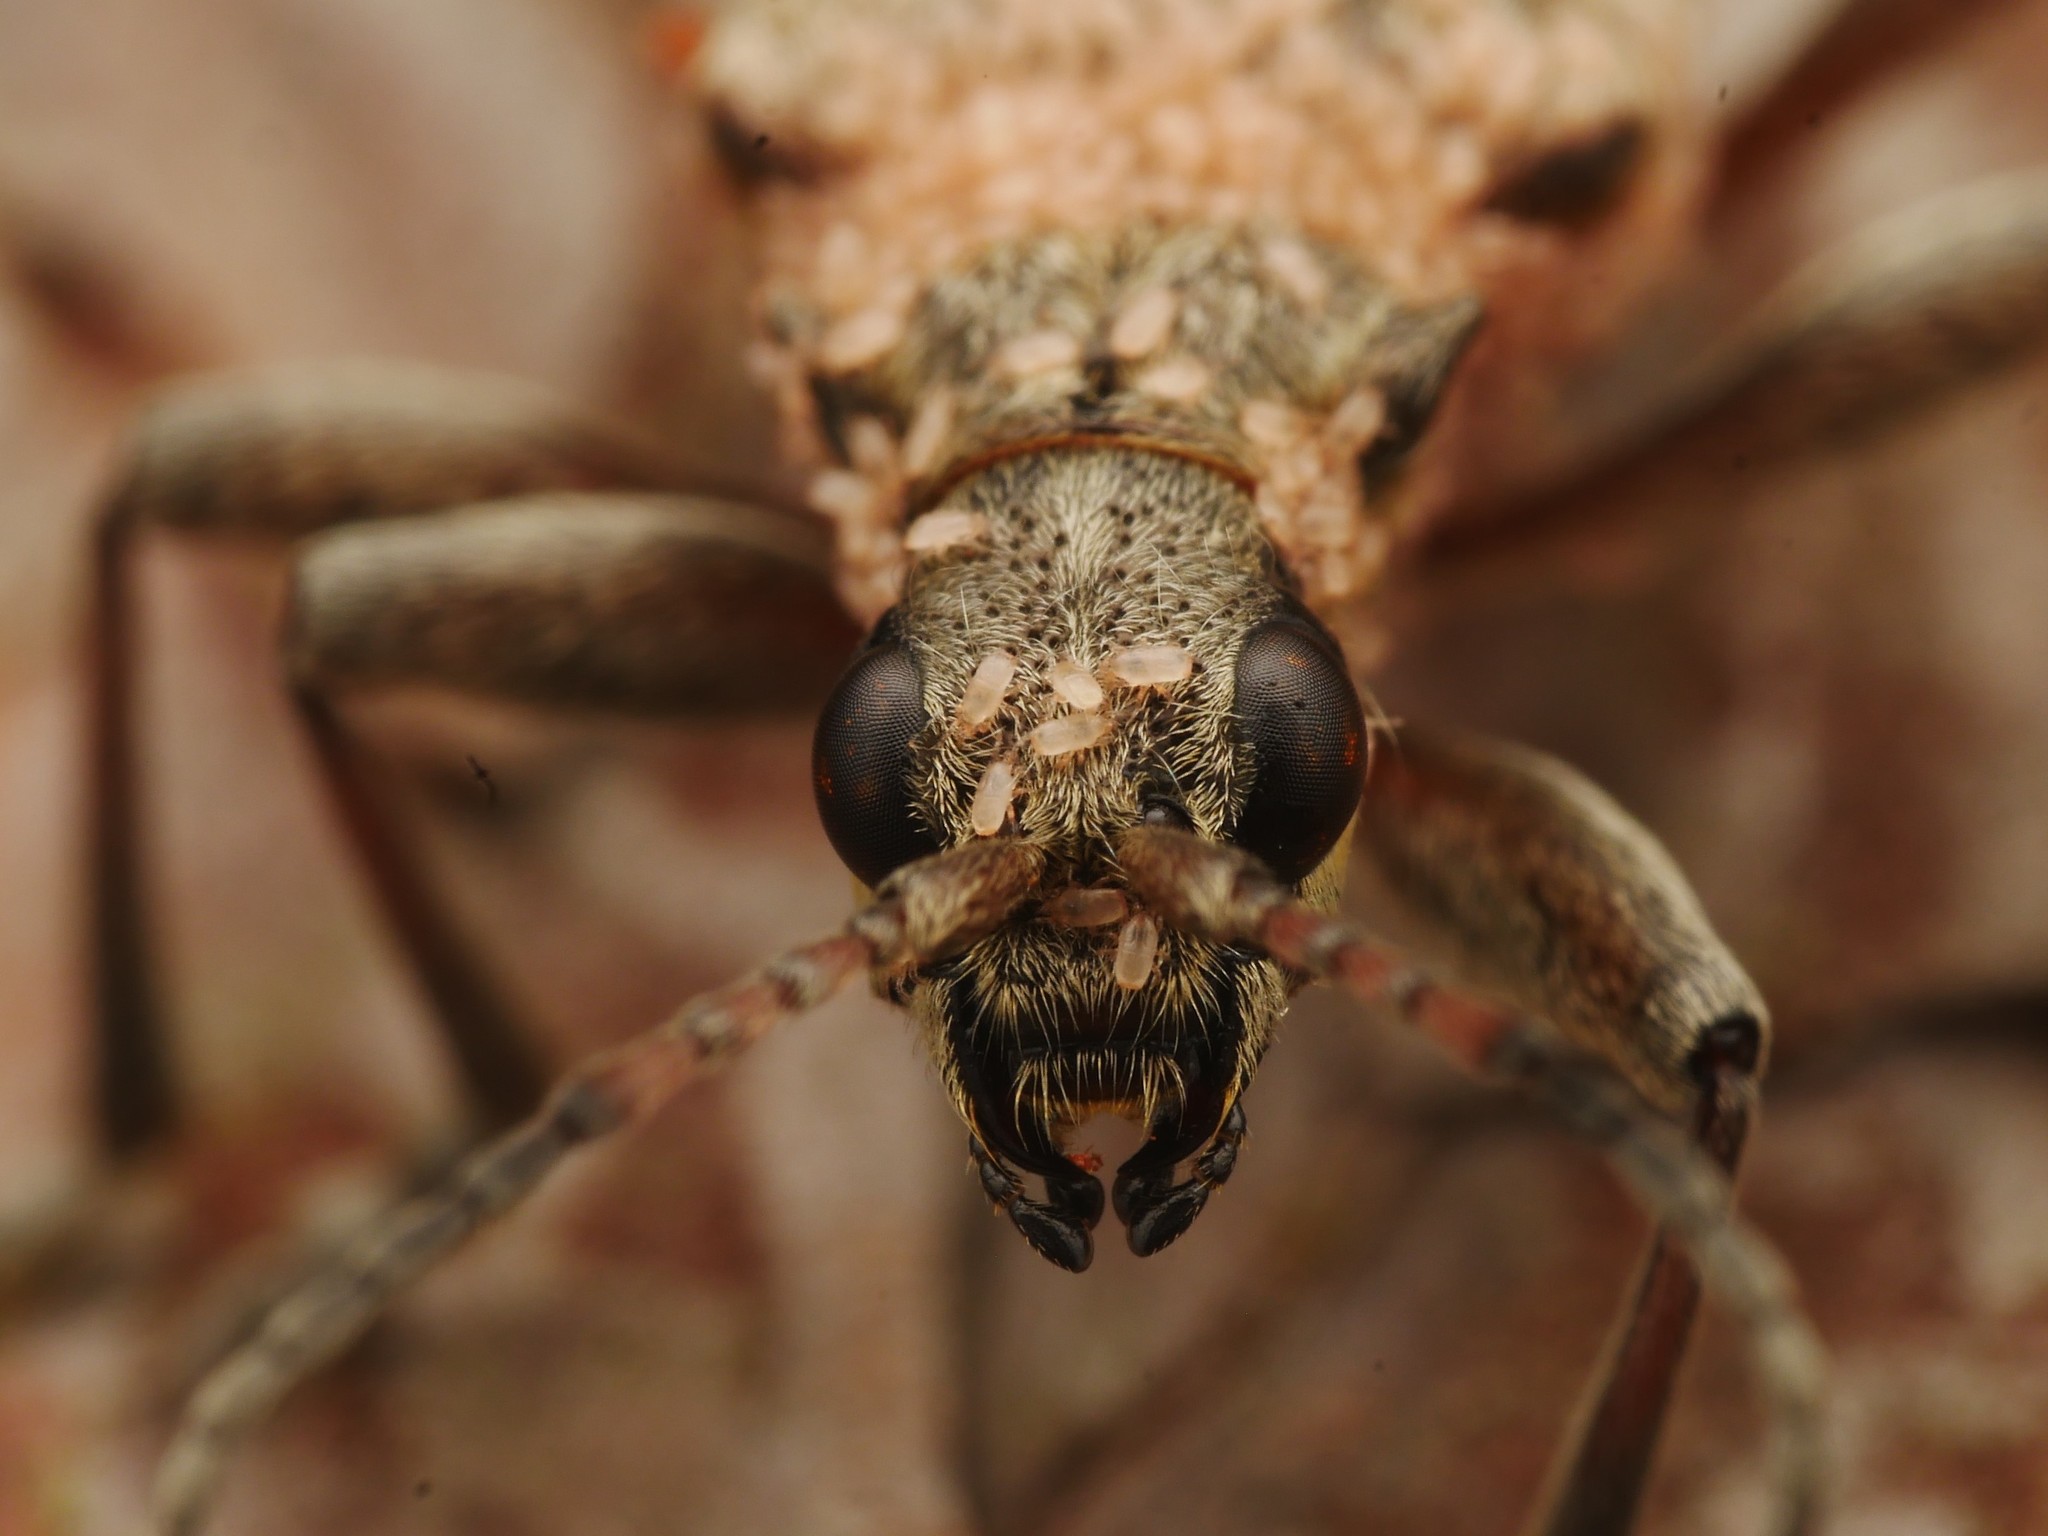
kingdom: Animalia
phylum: Arthropoda
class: Insecta
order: Coleoptera
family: Cerambycidae
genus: Rhagium
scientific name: Rhagium inquisitor
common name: Ribbed pine borer
